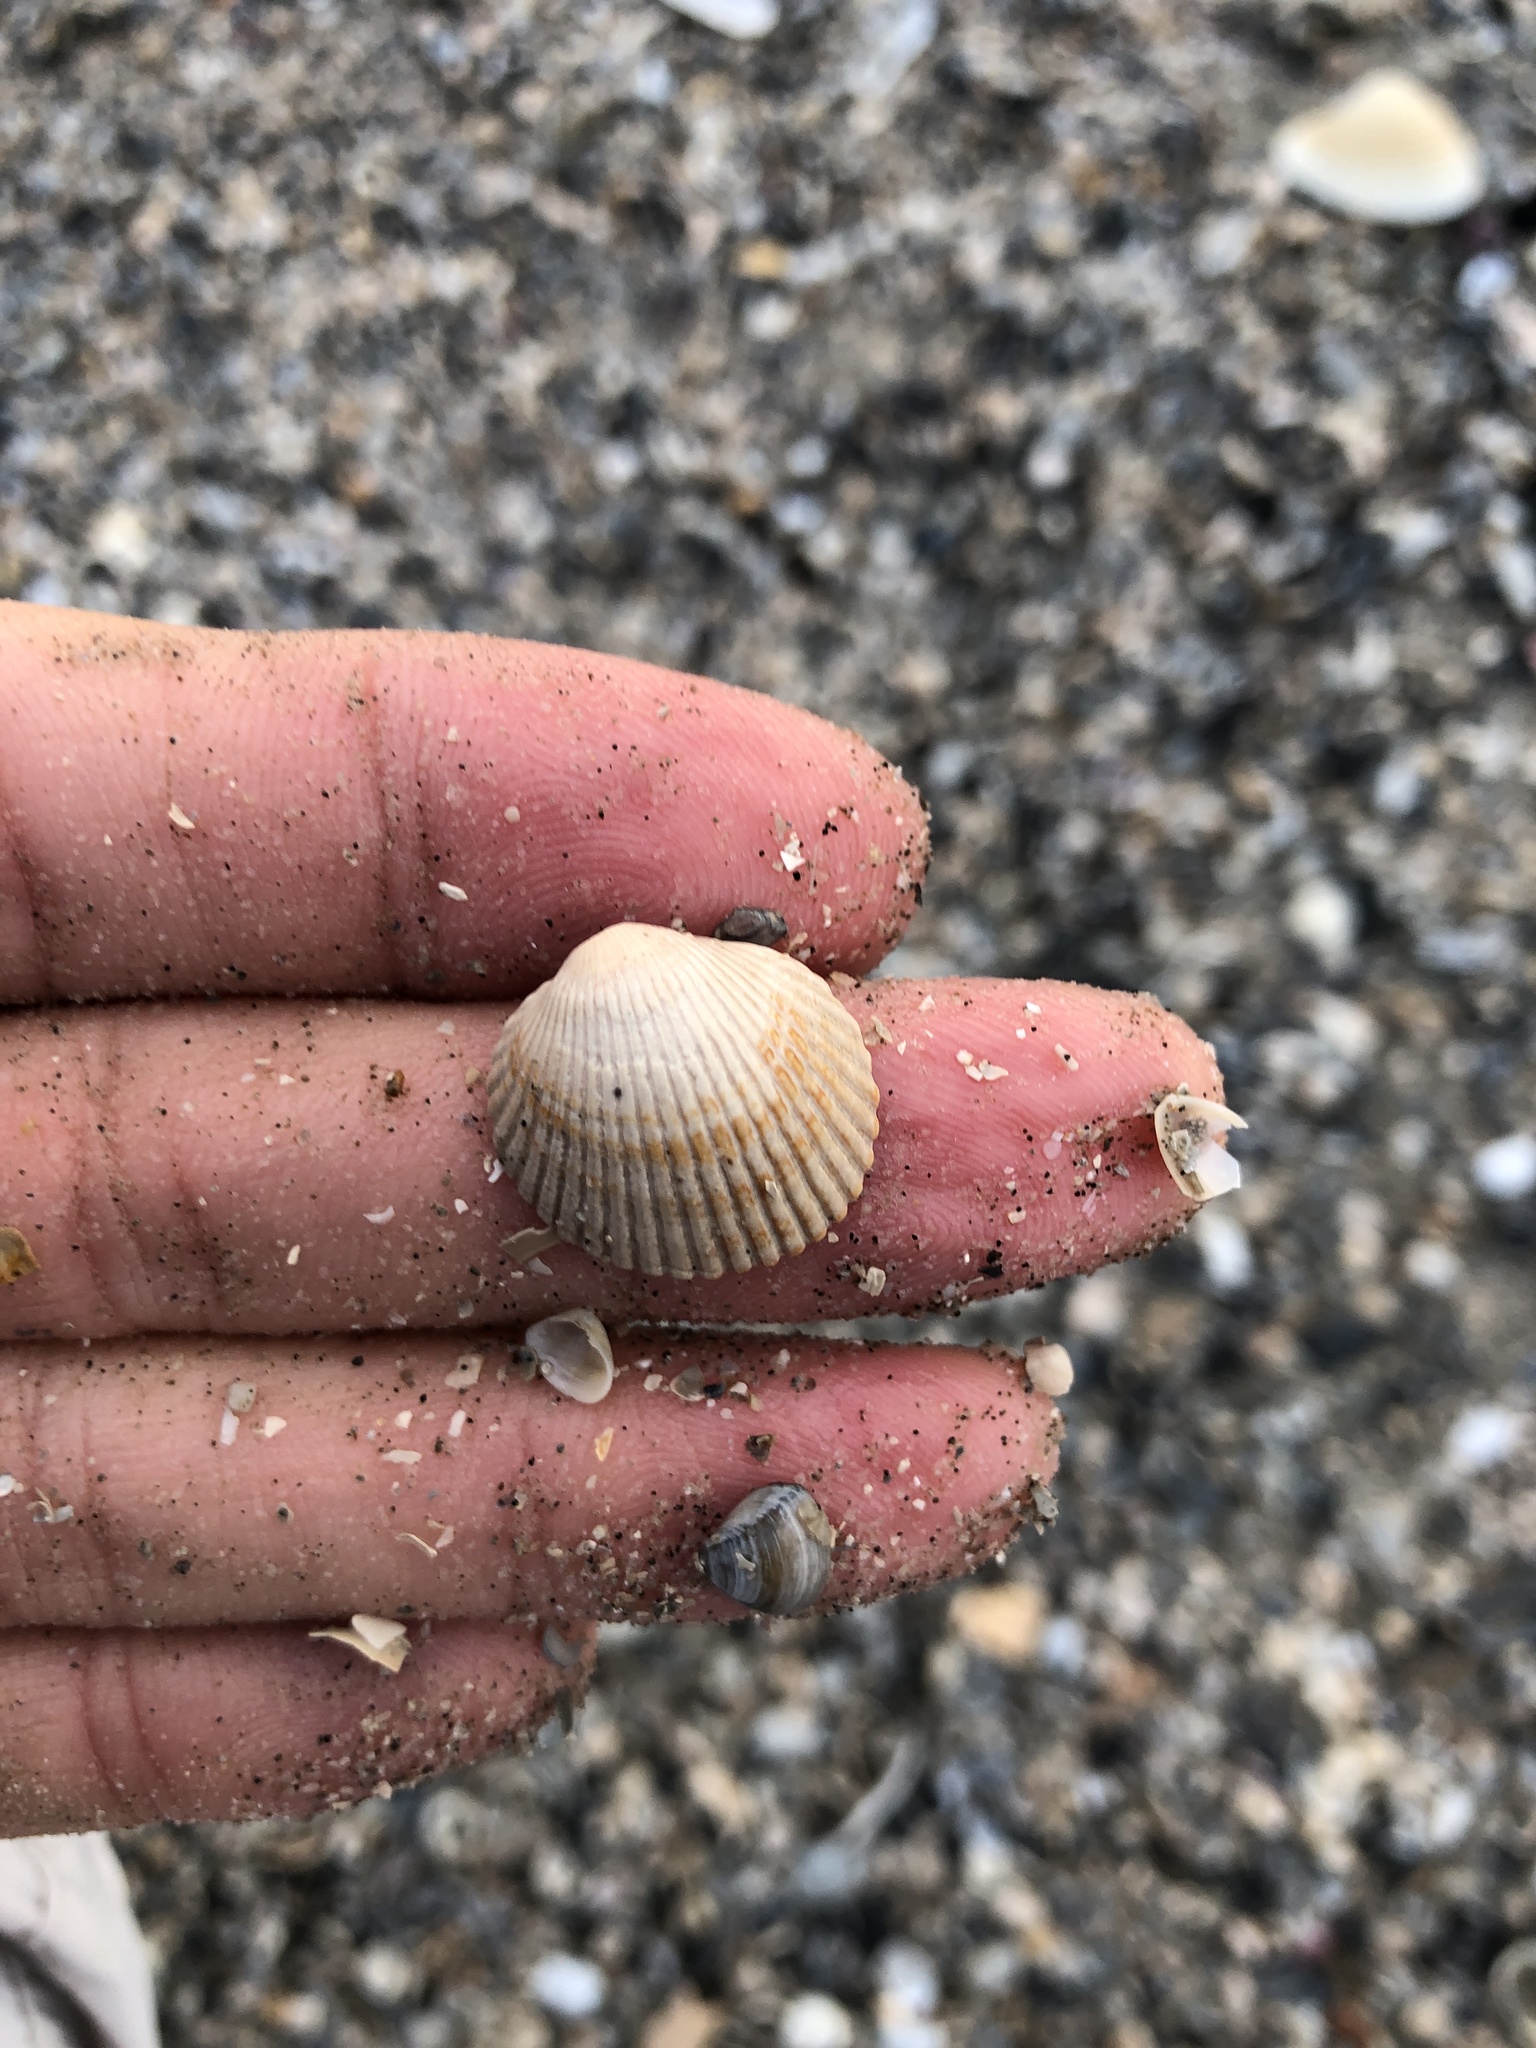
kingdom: Animalia
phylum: Mollusca
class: Bivalvia
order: Arcida
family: Arcidae
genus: Lunarca
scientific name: Lunarca ovalis
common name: Blood ark
